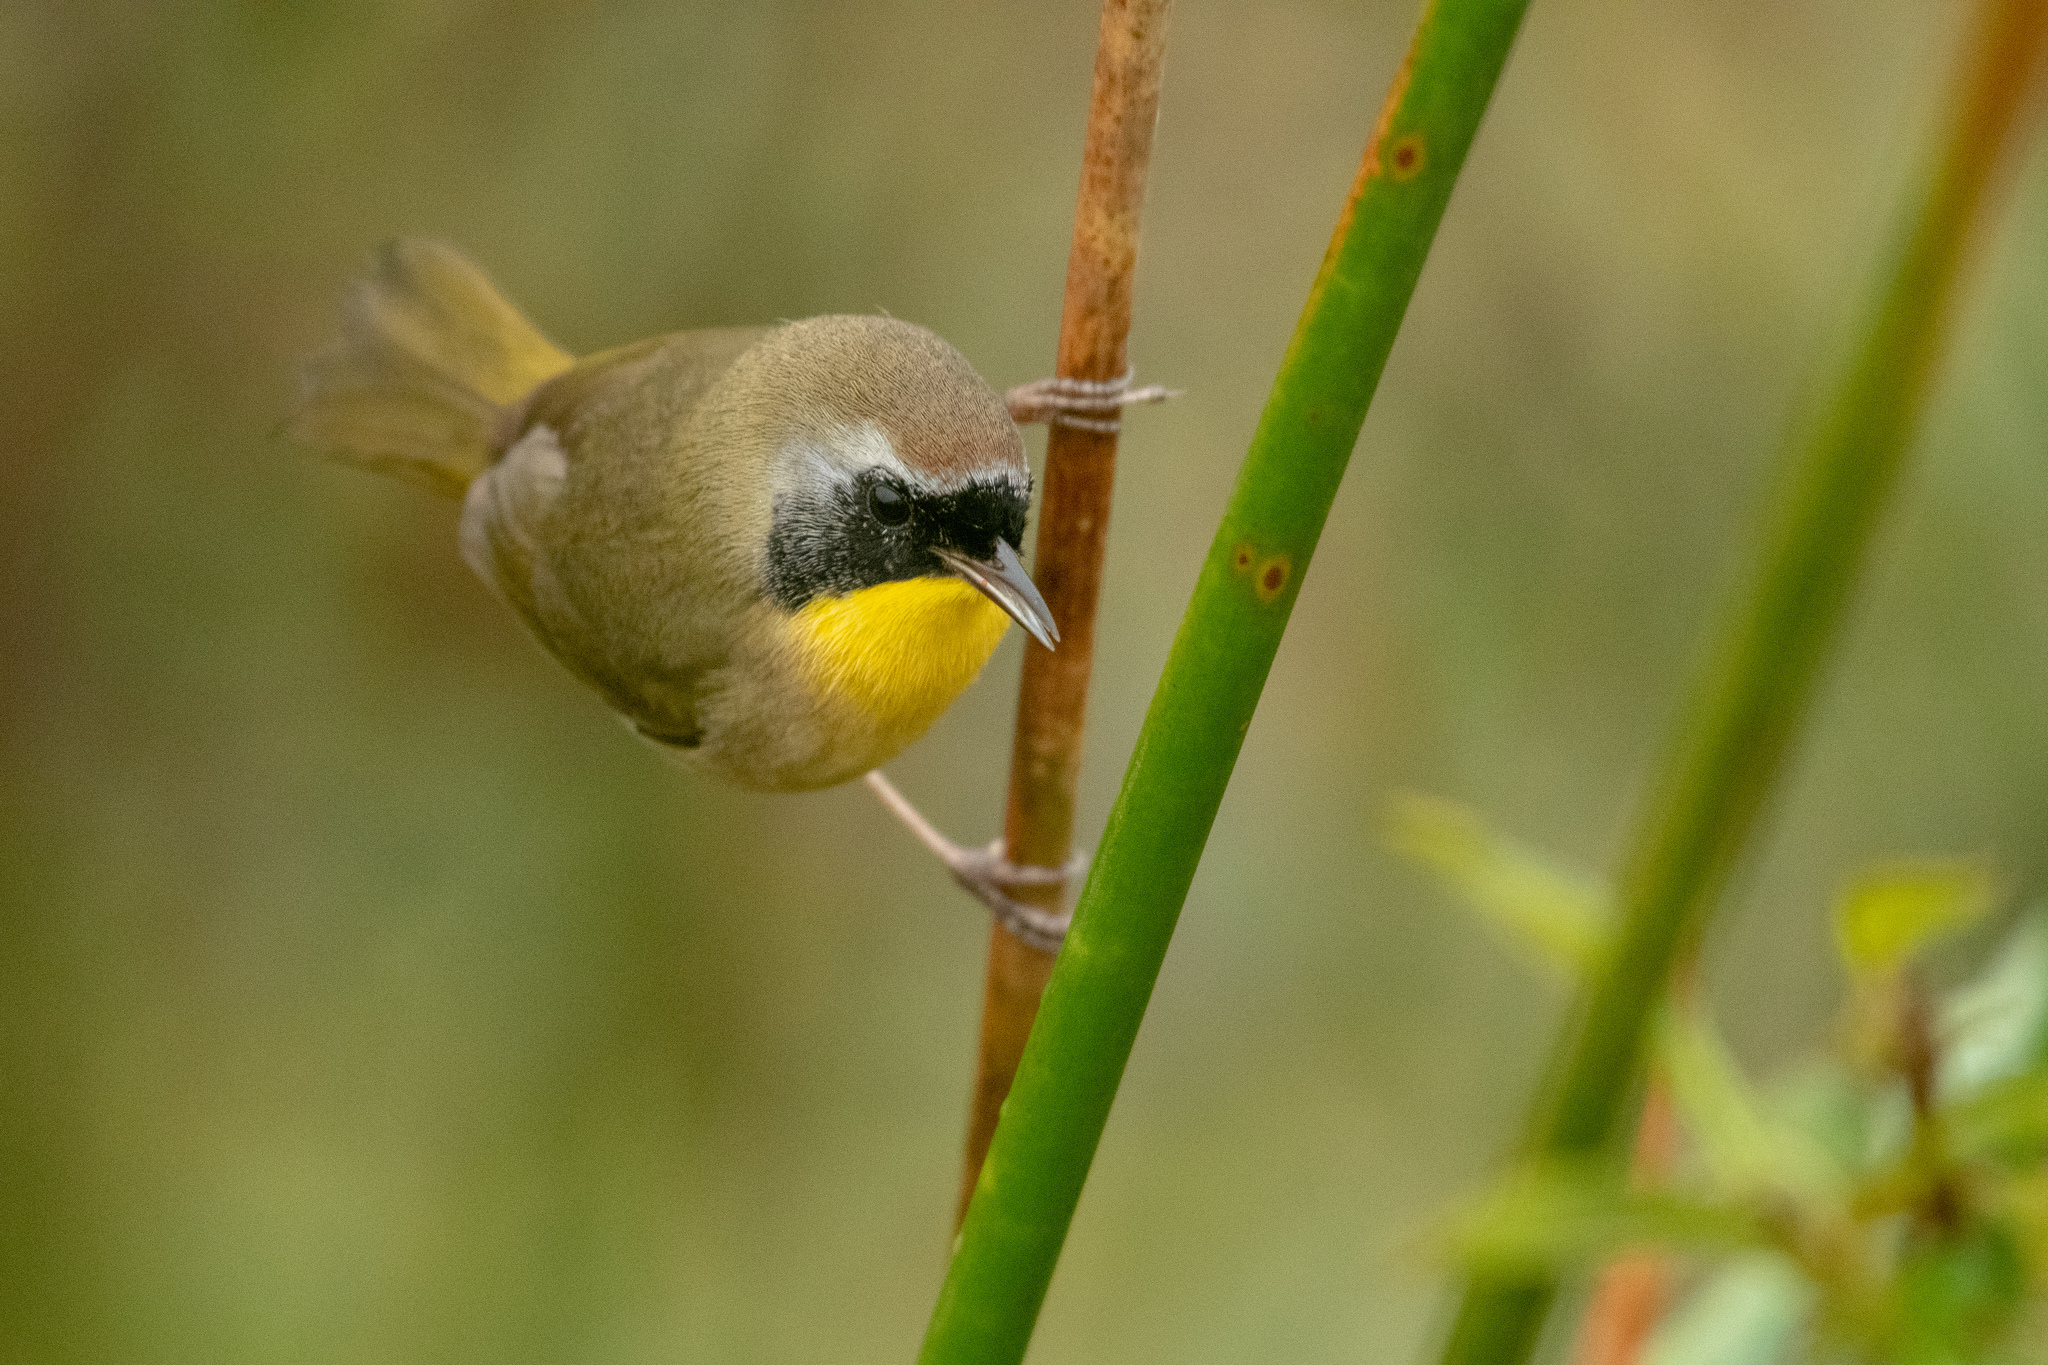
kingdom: Animalia
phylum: Chordata
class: Aves
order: Passeriformes
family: Parulidae
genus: Geothlypis
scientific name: Geothlypis trichas
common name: Common yellowthroat
